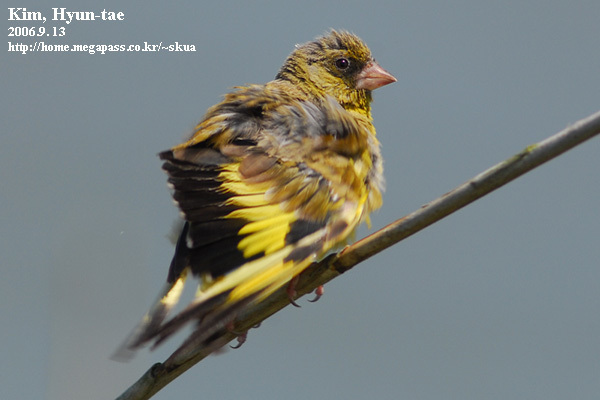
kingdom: Plantae
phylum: Tracheophyta
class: Liliopsida
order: Poales
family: Poaceae
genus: Chloris
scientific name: Chloris sinica
